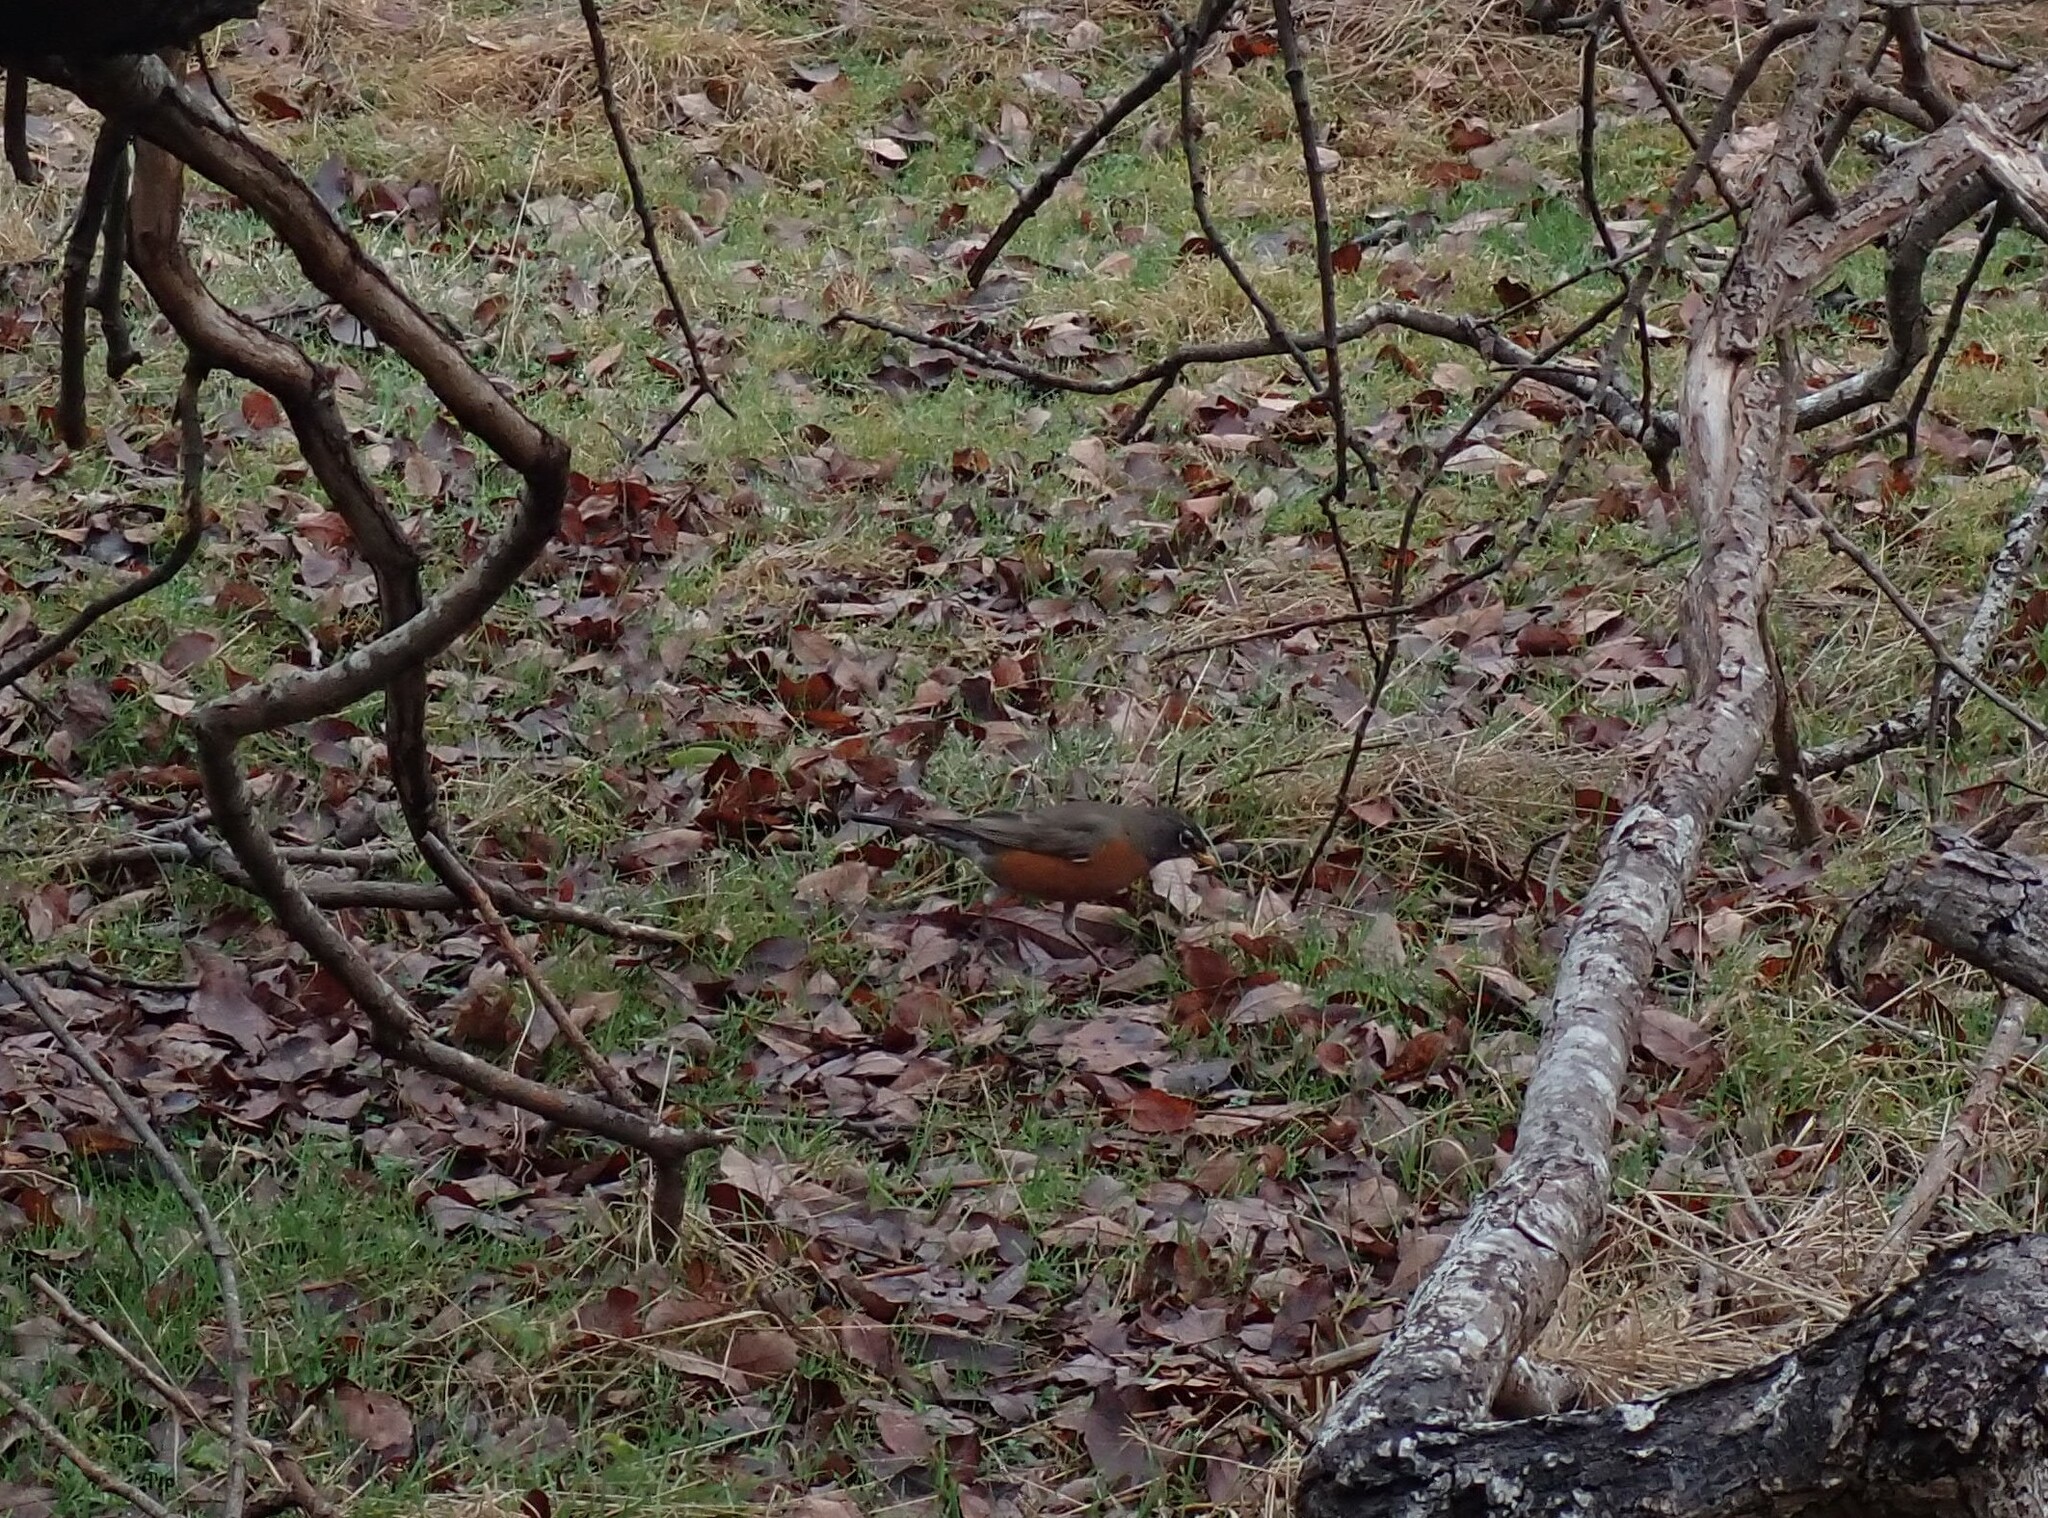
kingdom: Animalia
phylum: Chordata
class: Aves
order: Passeriformes
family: Turdidae
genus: Turdus
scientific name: Turdus migratorius
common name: American robin
